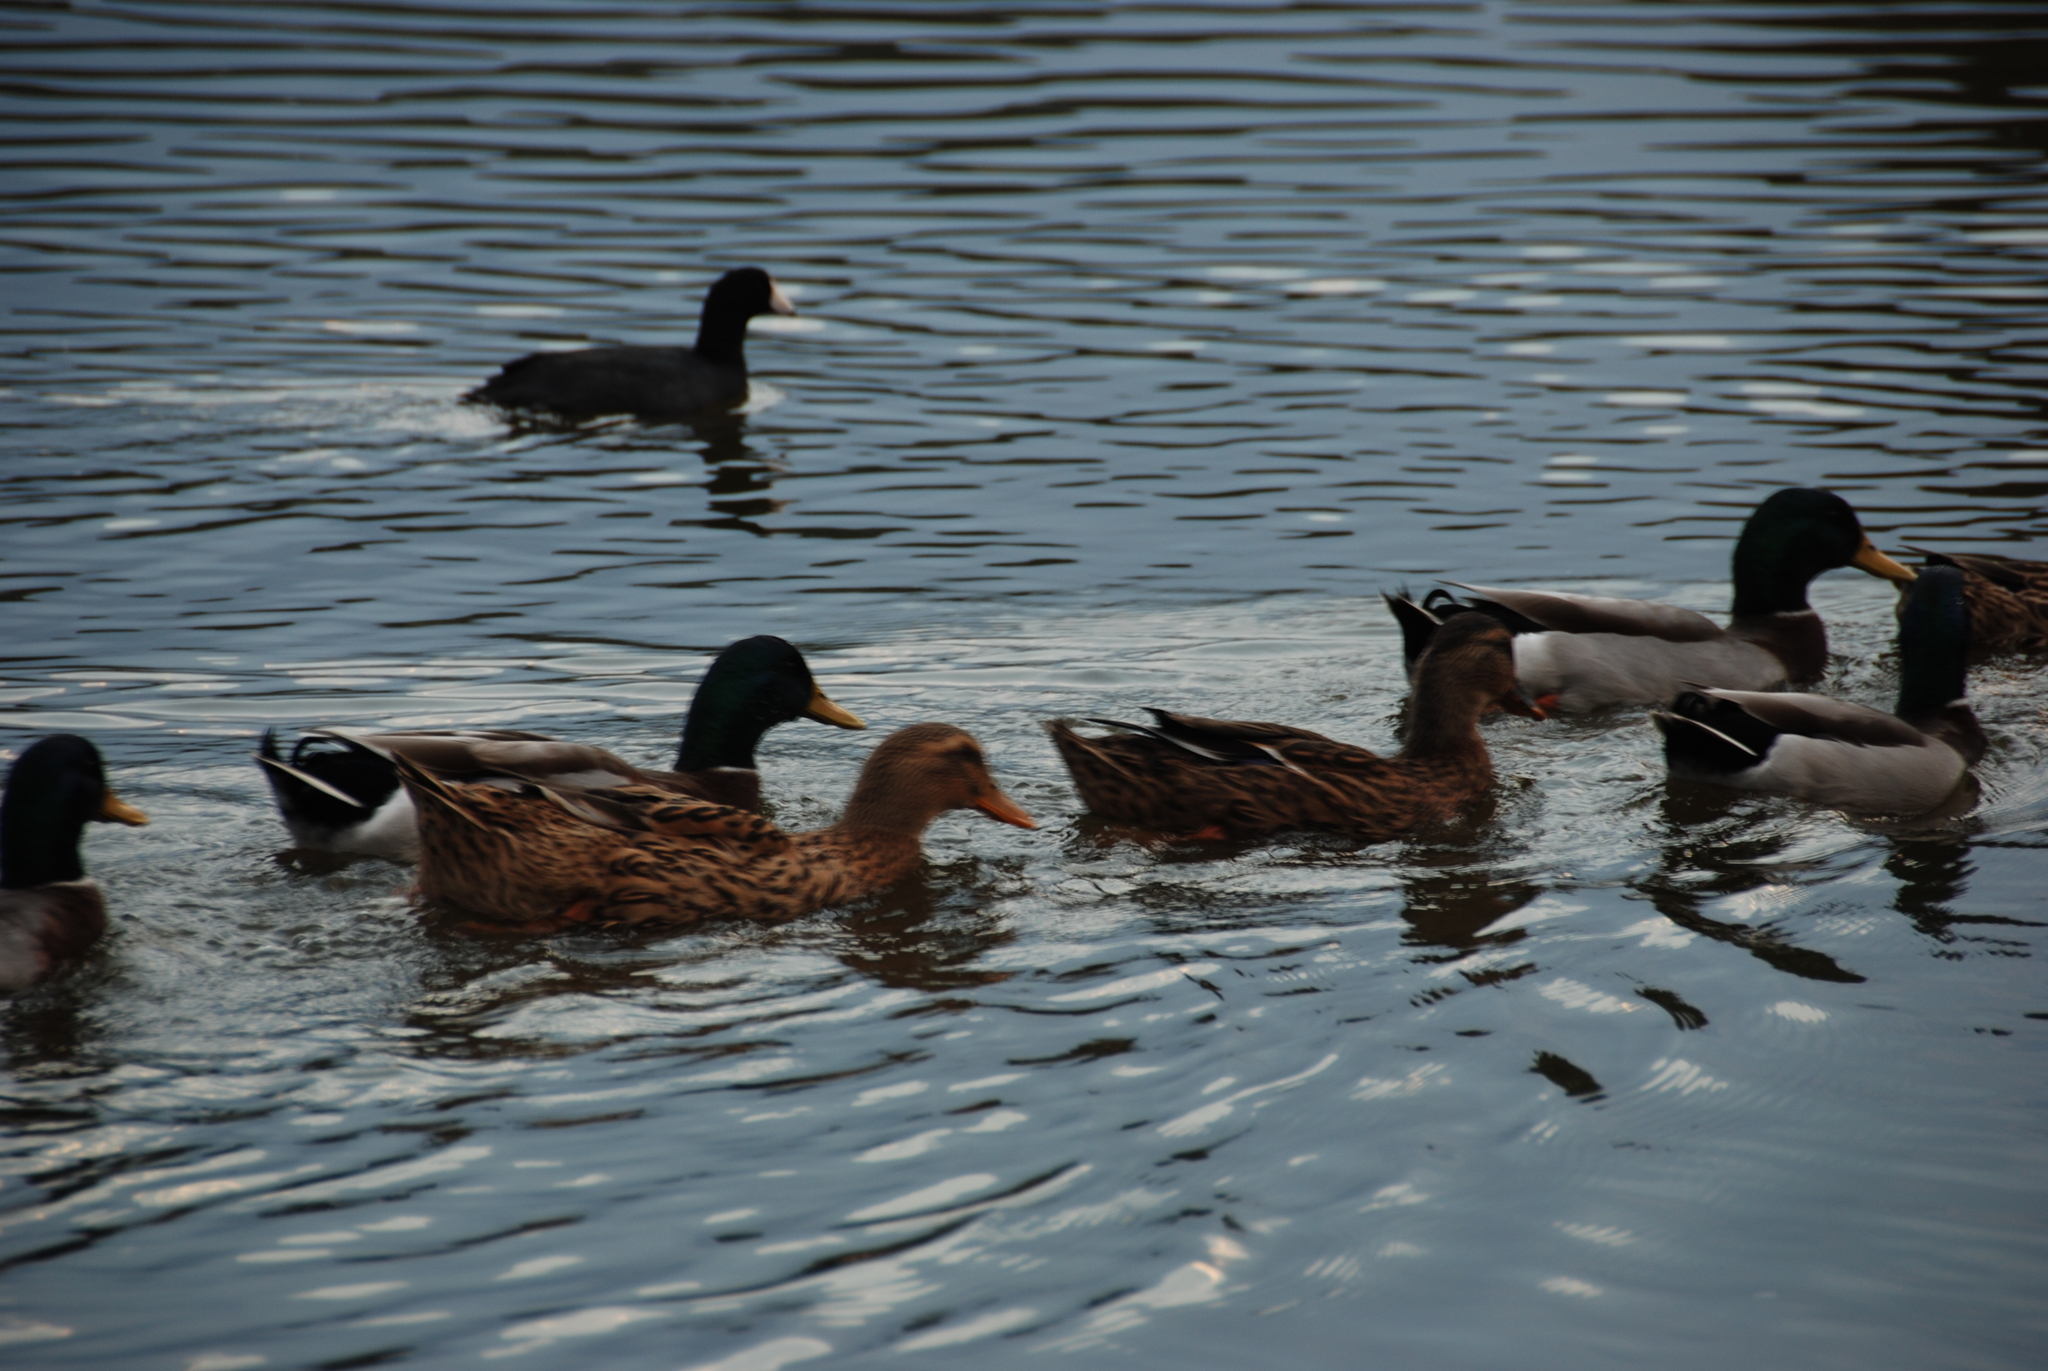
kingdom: Animalia
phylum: Chordata
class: Aves
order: Anseriformes
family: Anatidae
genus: Anas
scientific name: Anas platyrhynchos
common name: Mallard
